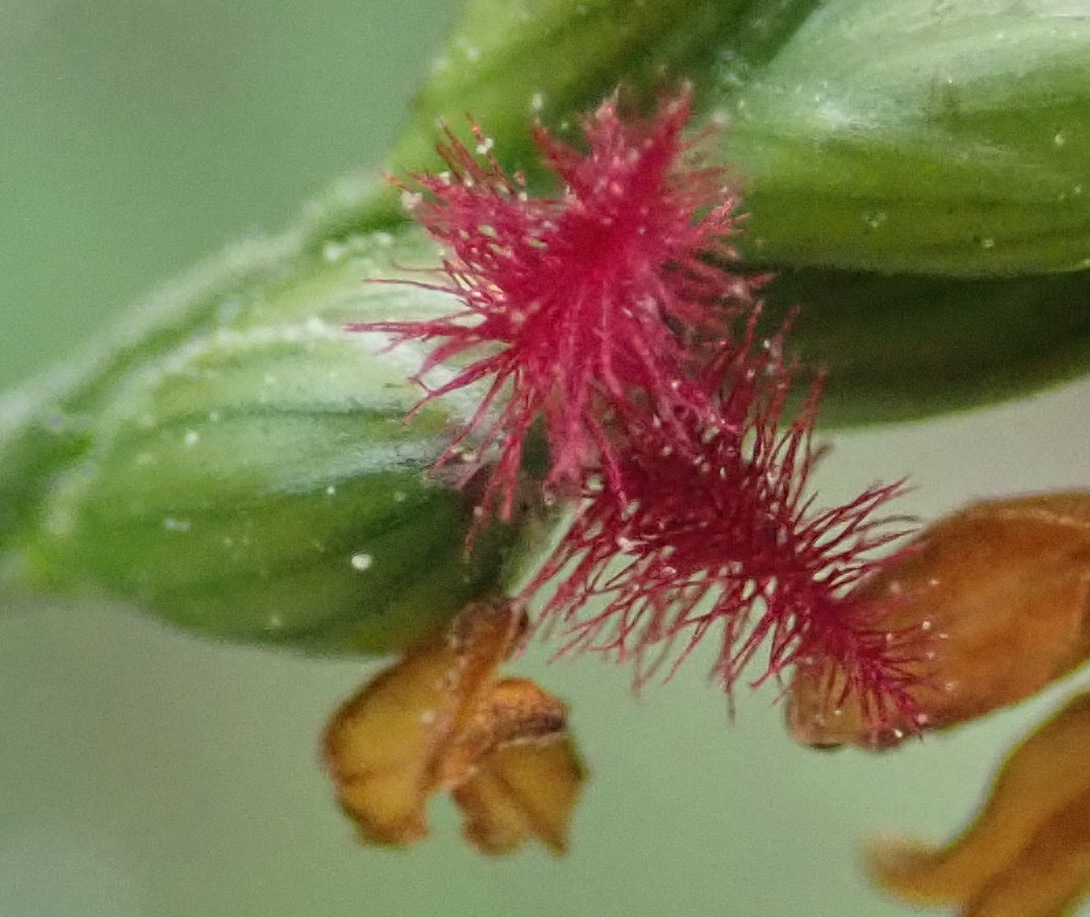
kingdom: Plantae
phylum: Tracheophyta
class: Liliopsida
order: Poales
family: Poaceae
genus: Panicum
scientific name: Panicum deustum
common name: Reed panicum
